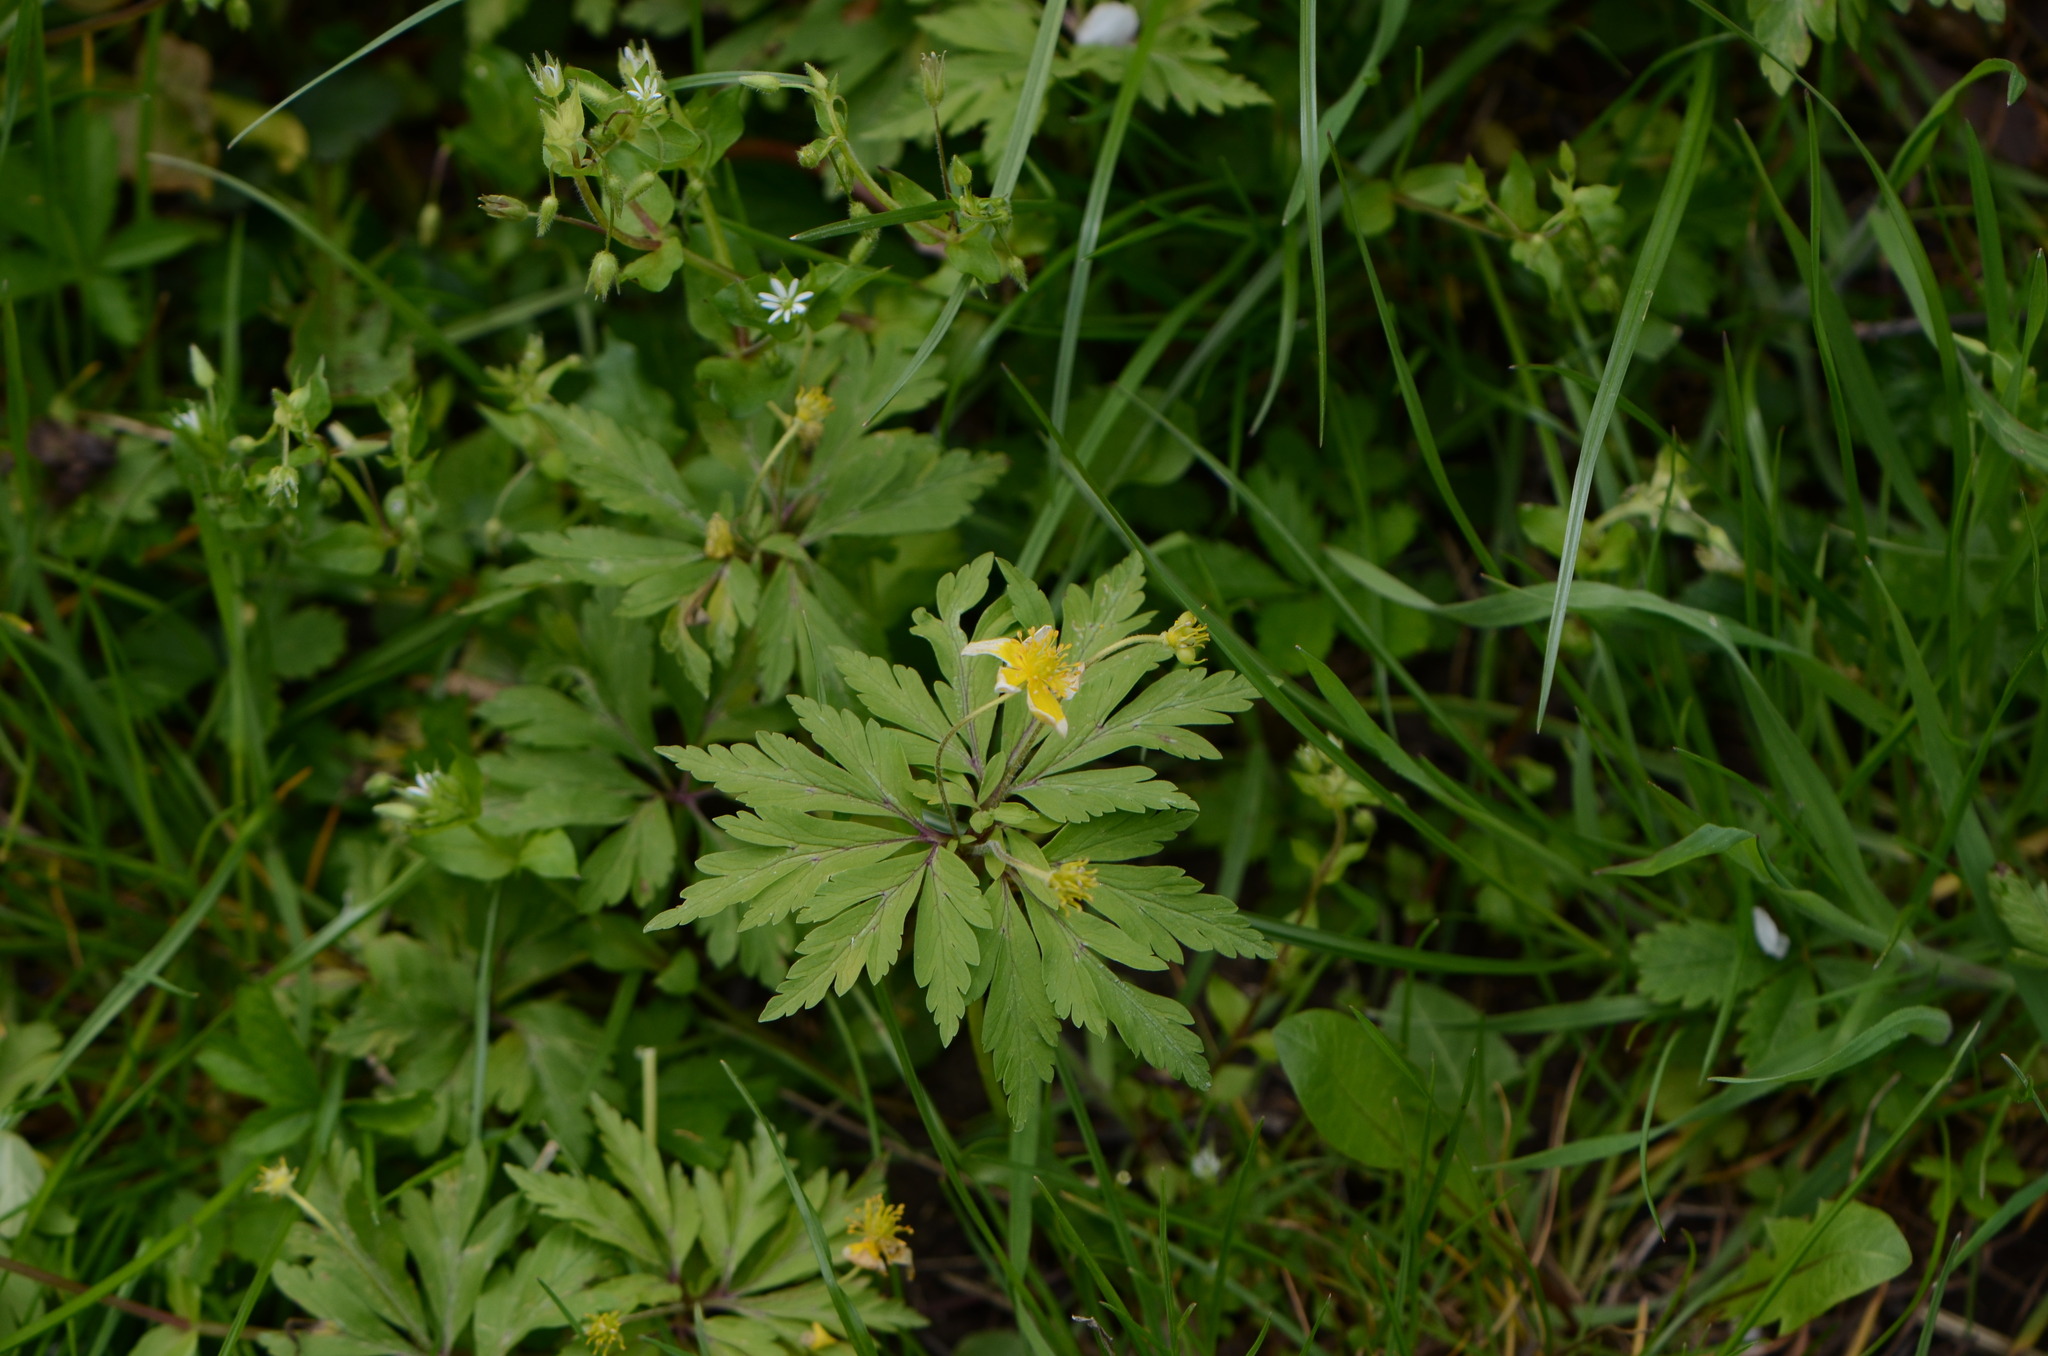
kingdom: Plantae
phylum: Tracheophyta
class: Magnoliopsida
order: Ranunculales
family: Ranunculaceae
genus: Anemone
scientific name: Anemone ranunculoides
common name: Yellow anemone
